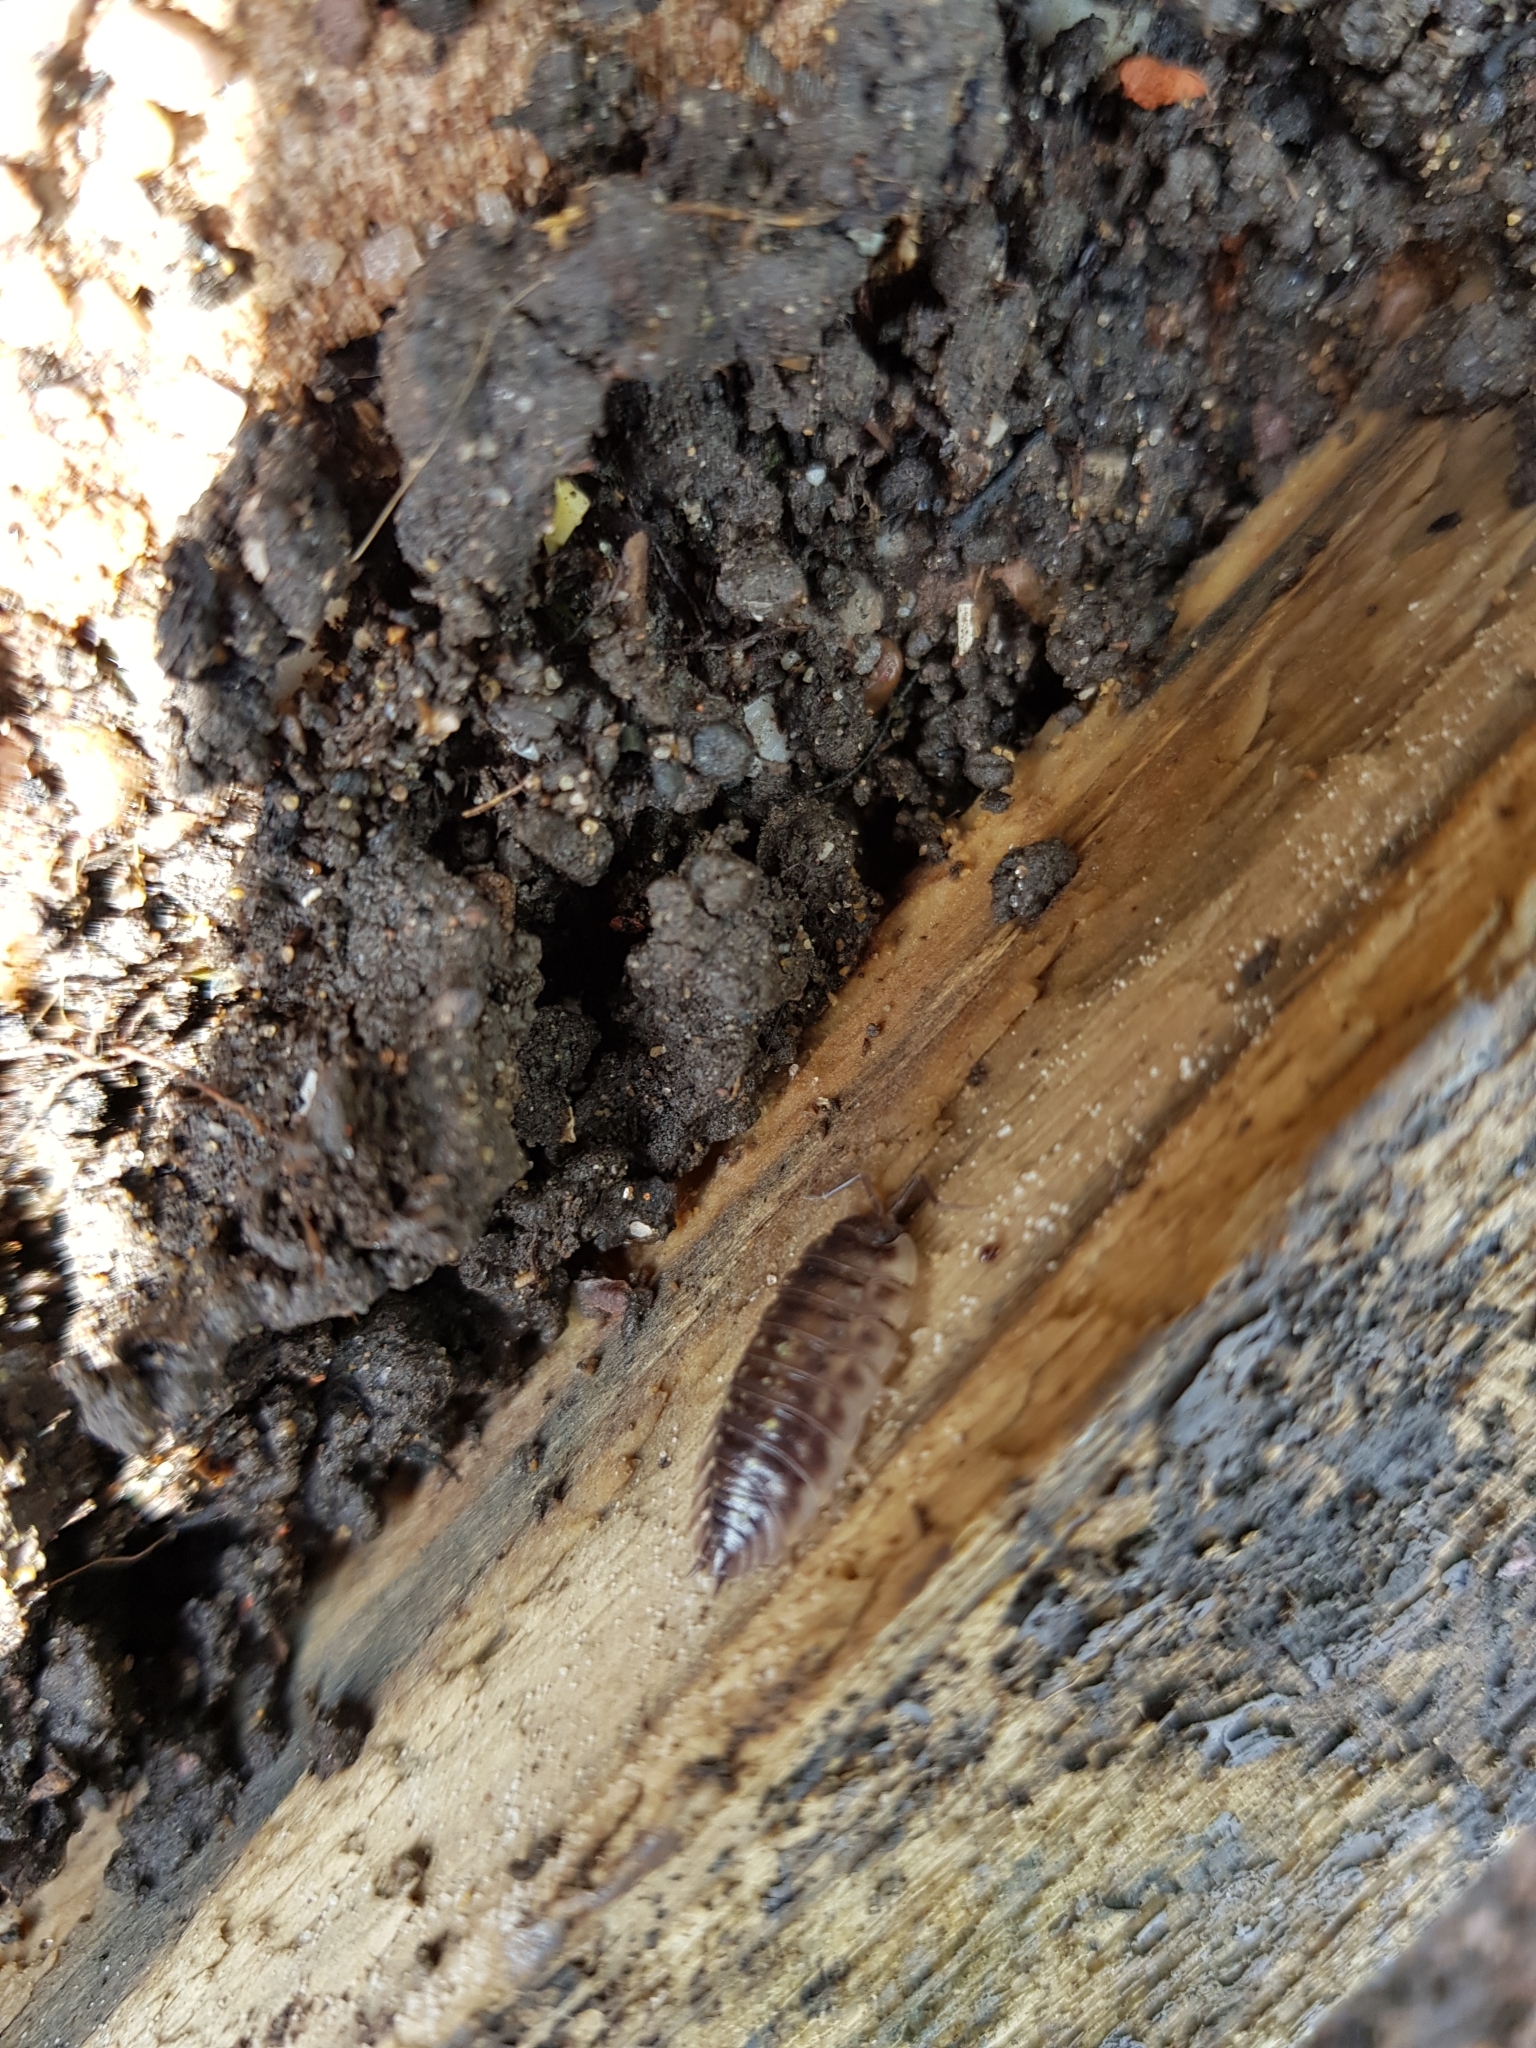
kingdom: Animalia
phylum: Arthropoda
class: Malacostraca
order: Isopoda
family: Oniscidae
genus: Oniscus
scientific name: Oniscus asellus
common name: Common shiny woodlouse
